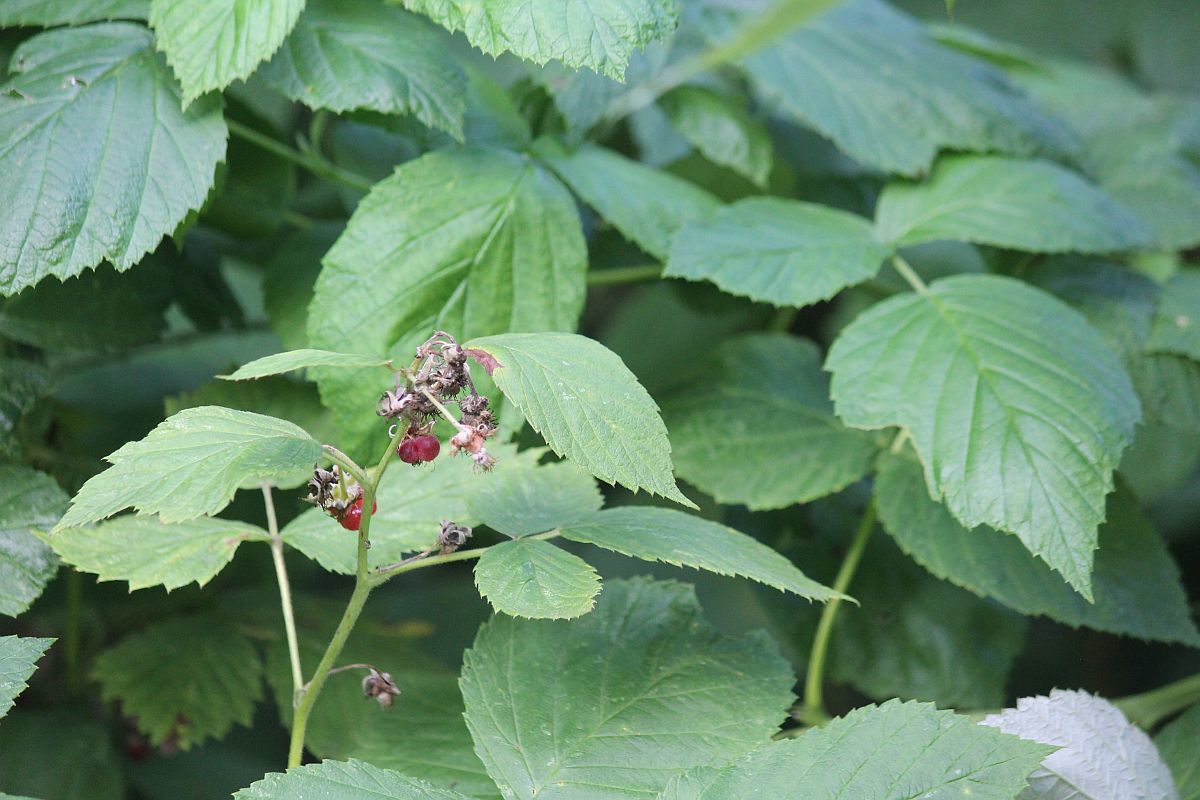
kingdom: Plantae
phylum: Tracheophyta
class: Magnoliopsida
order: Rosales
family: Rosaceae
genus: Rubus
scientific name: Rubus idaeus
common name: Raspberry
